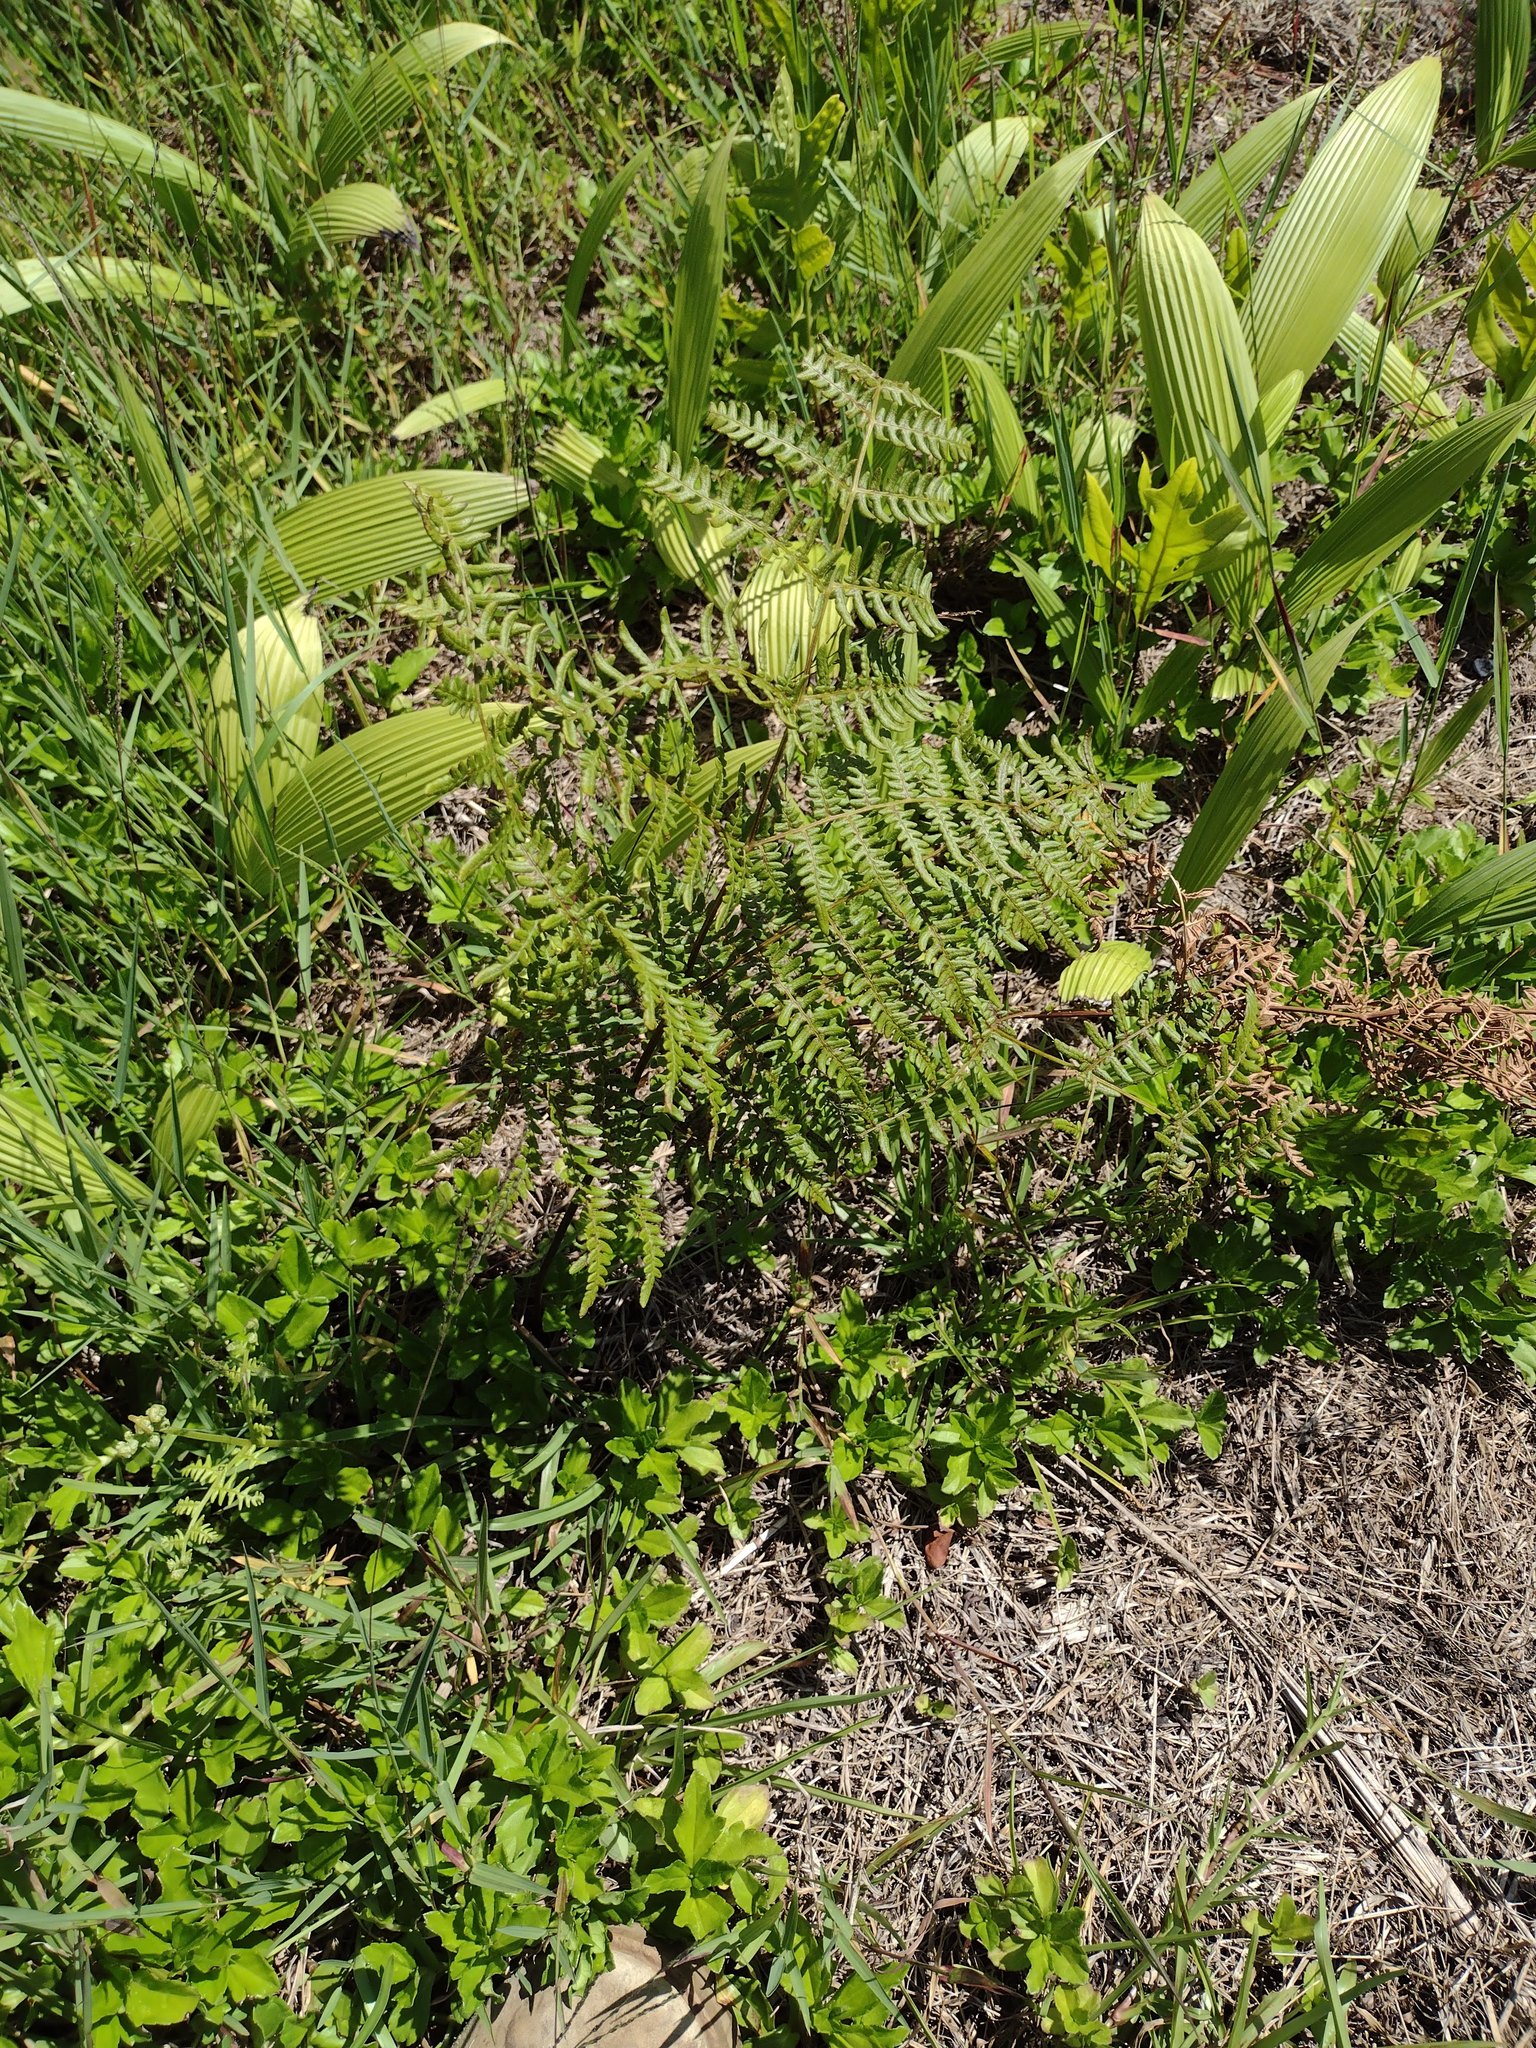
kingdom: Plantae
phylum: Tracheophyta
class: Polypodiopsida
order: Polypodiales
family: Dennstaedtiaceae
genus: Pteridium
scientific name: Pteridium aquilinum
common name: Bracken
